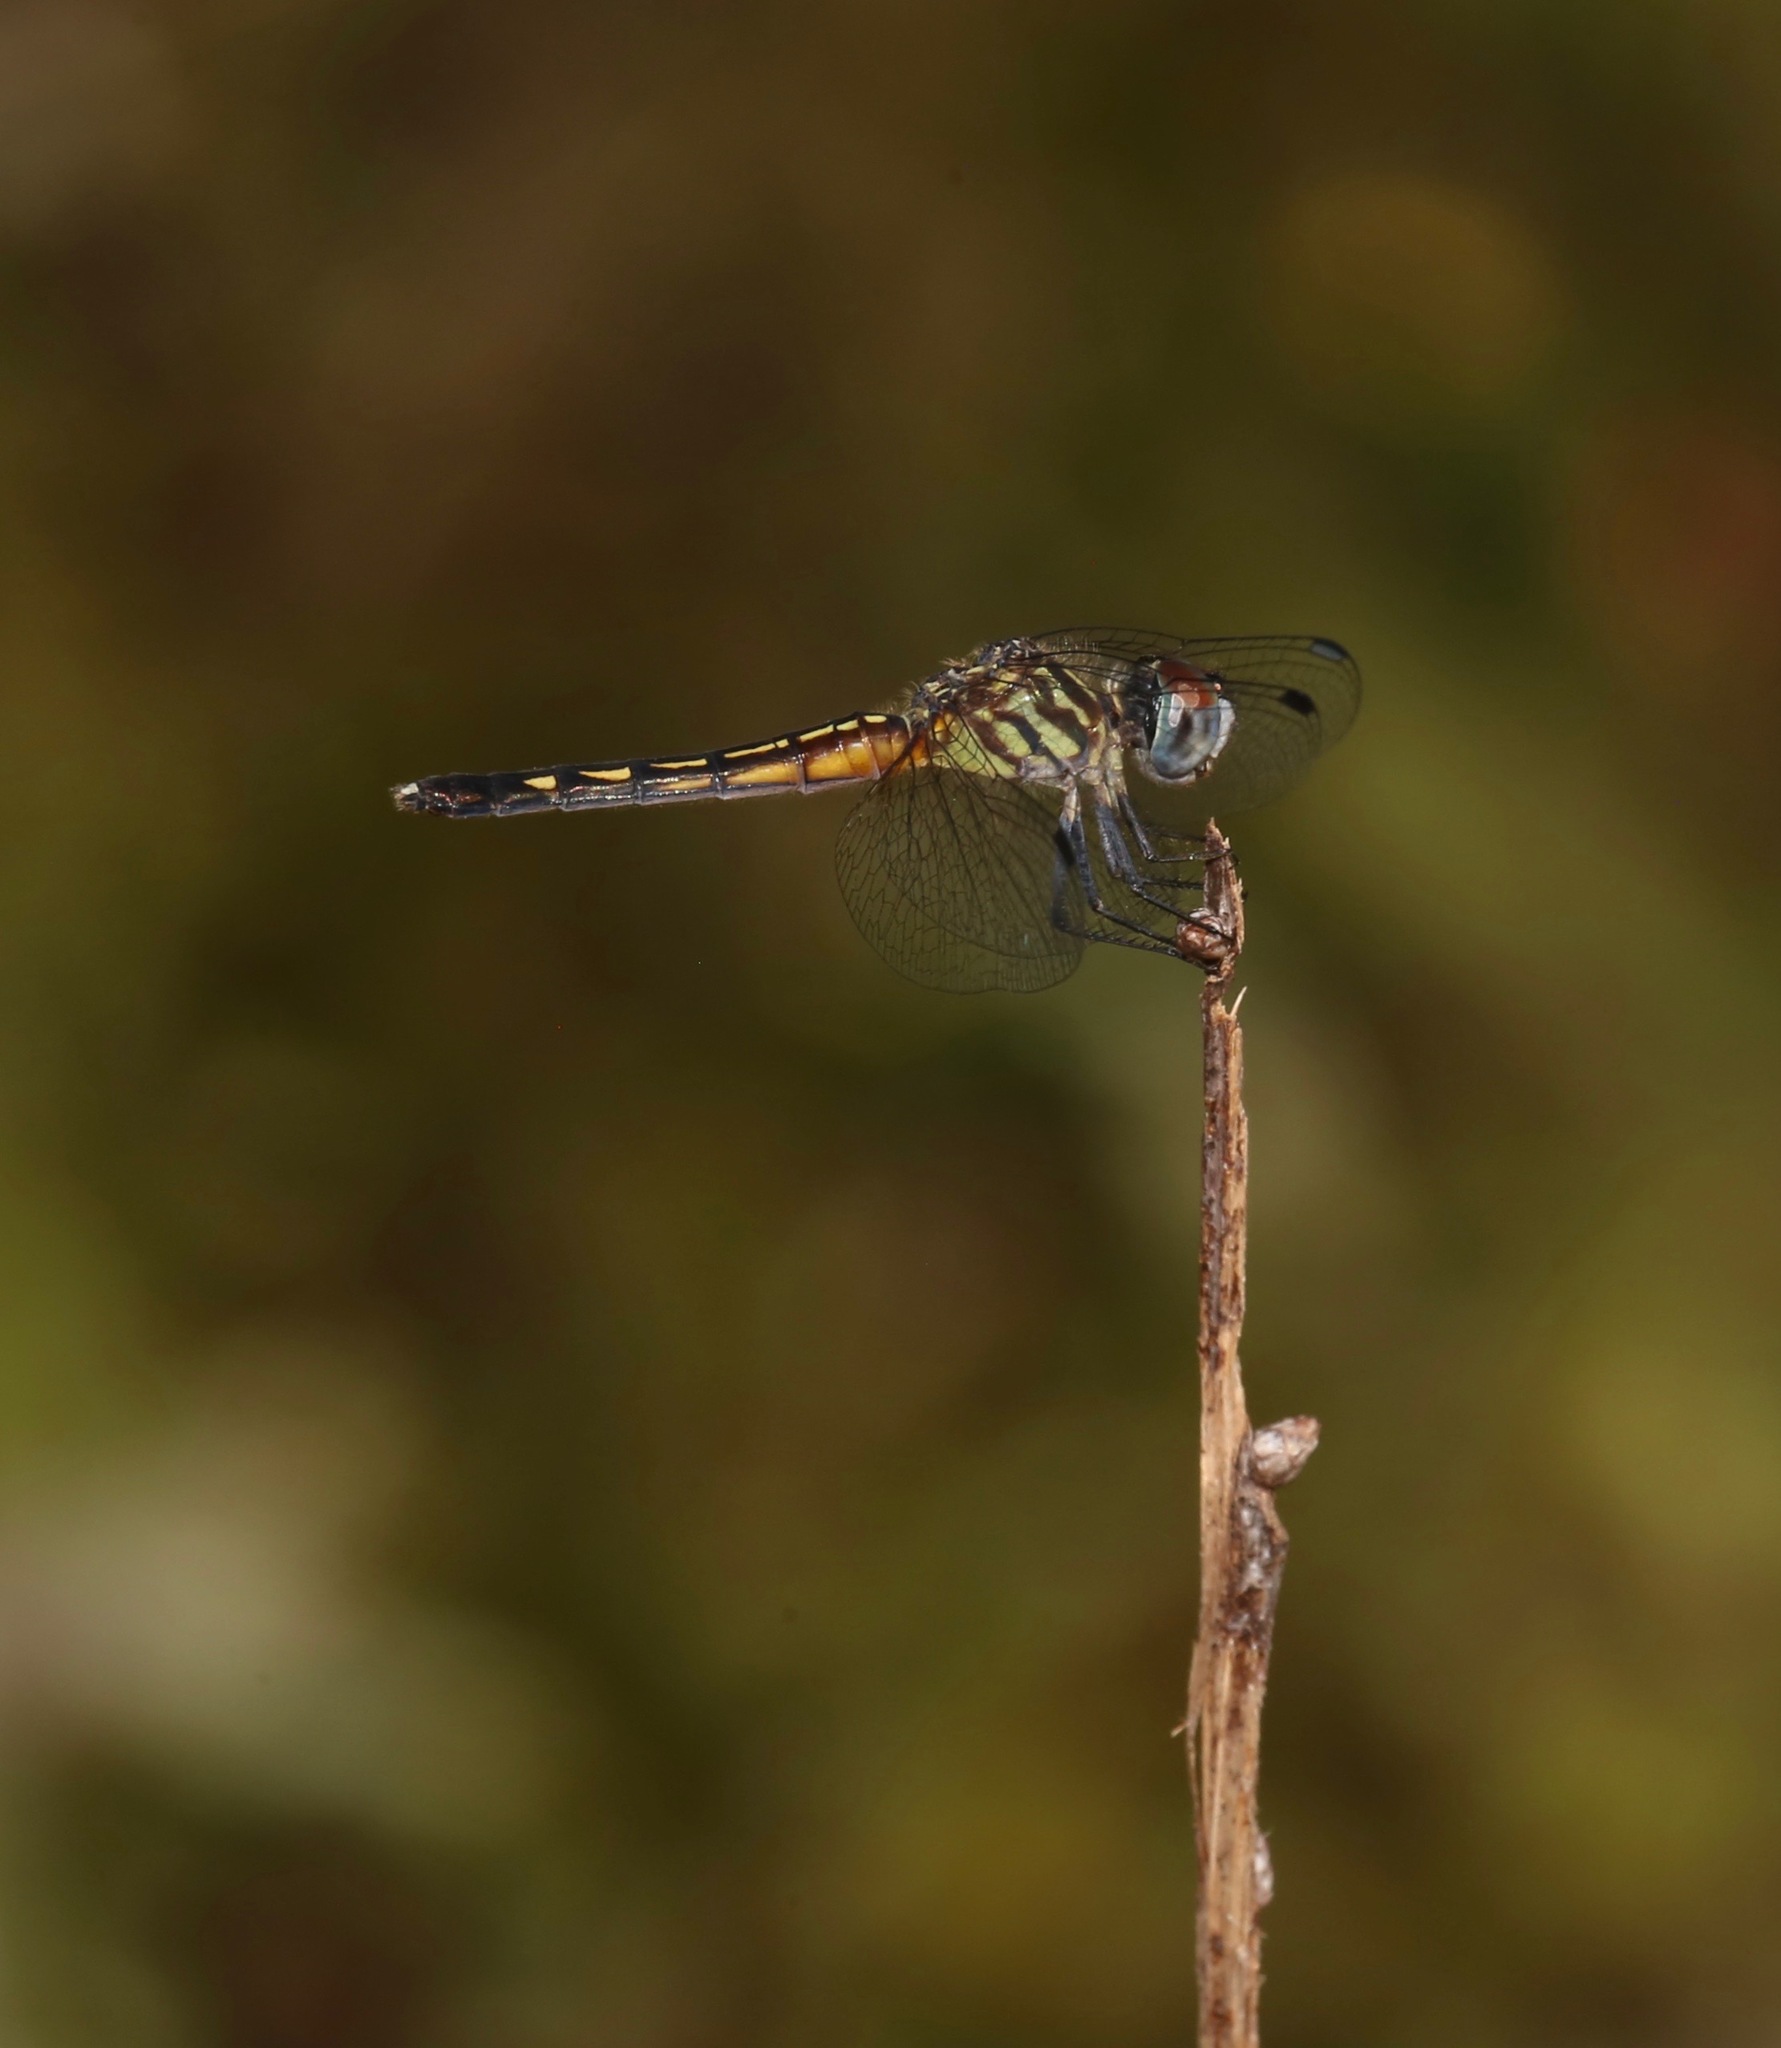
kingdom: Animalia
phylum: Arthropoda
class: Insecta
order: Odonata
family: Libellulidae
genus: Pachydiplax
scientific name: Pachydiplax longipennis
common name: Blue dasher
